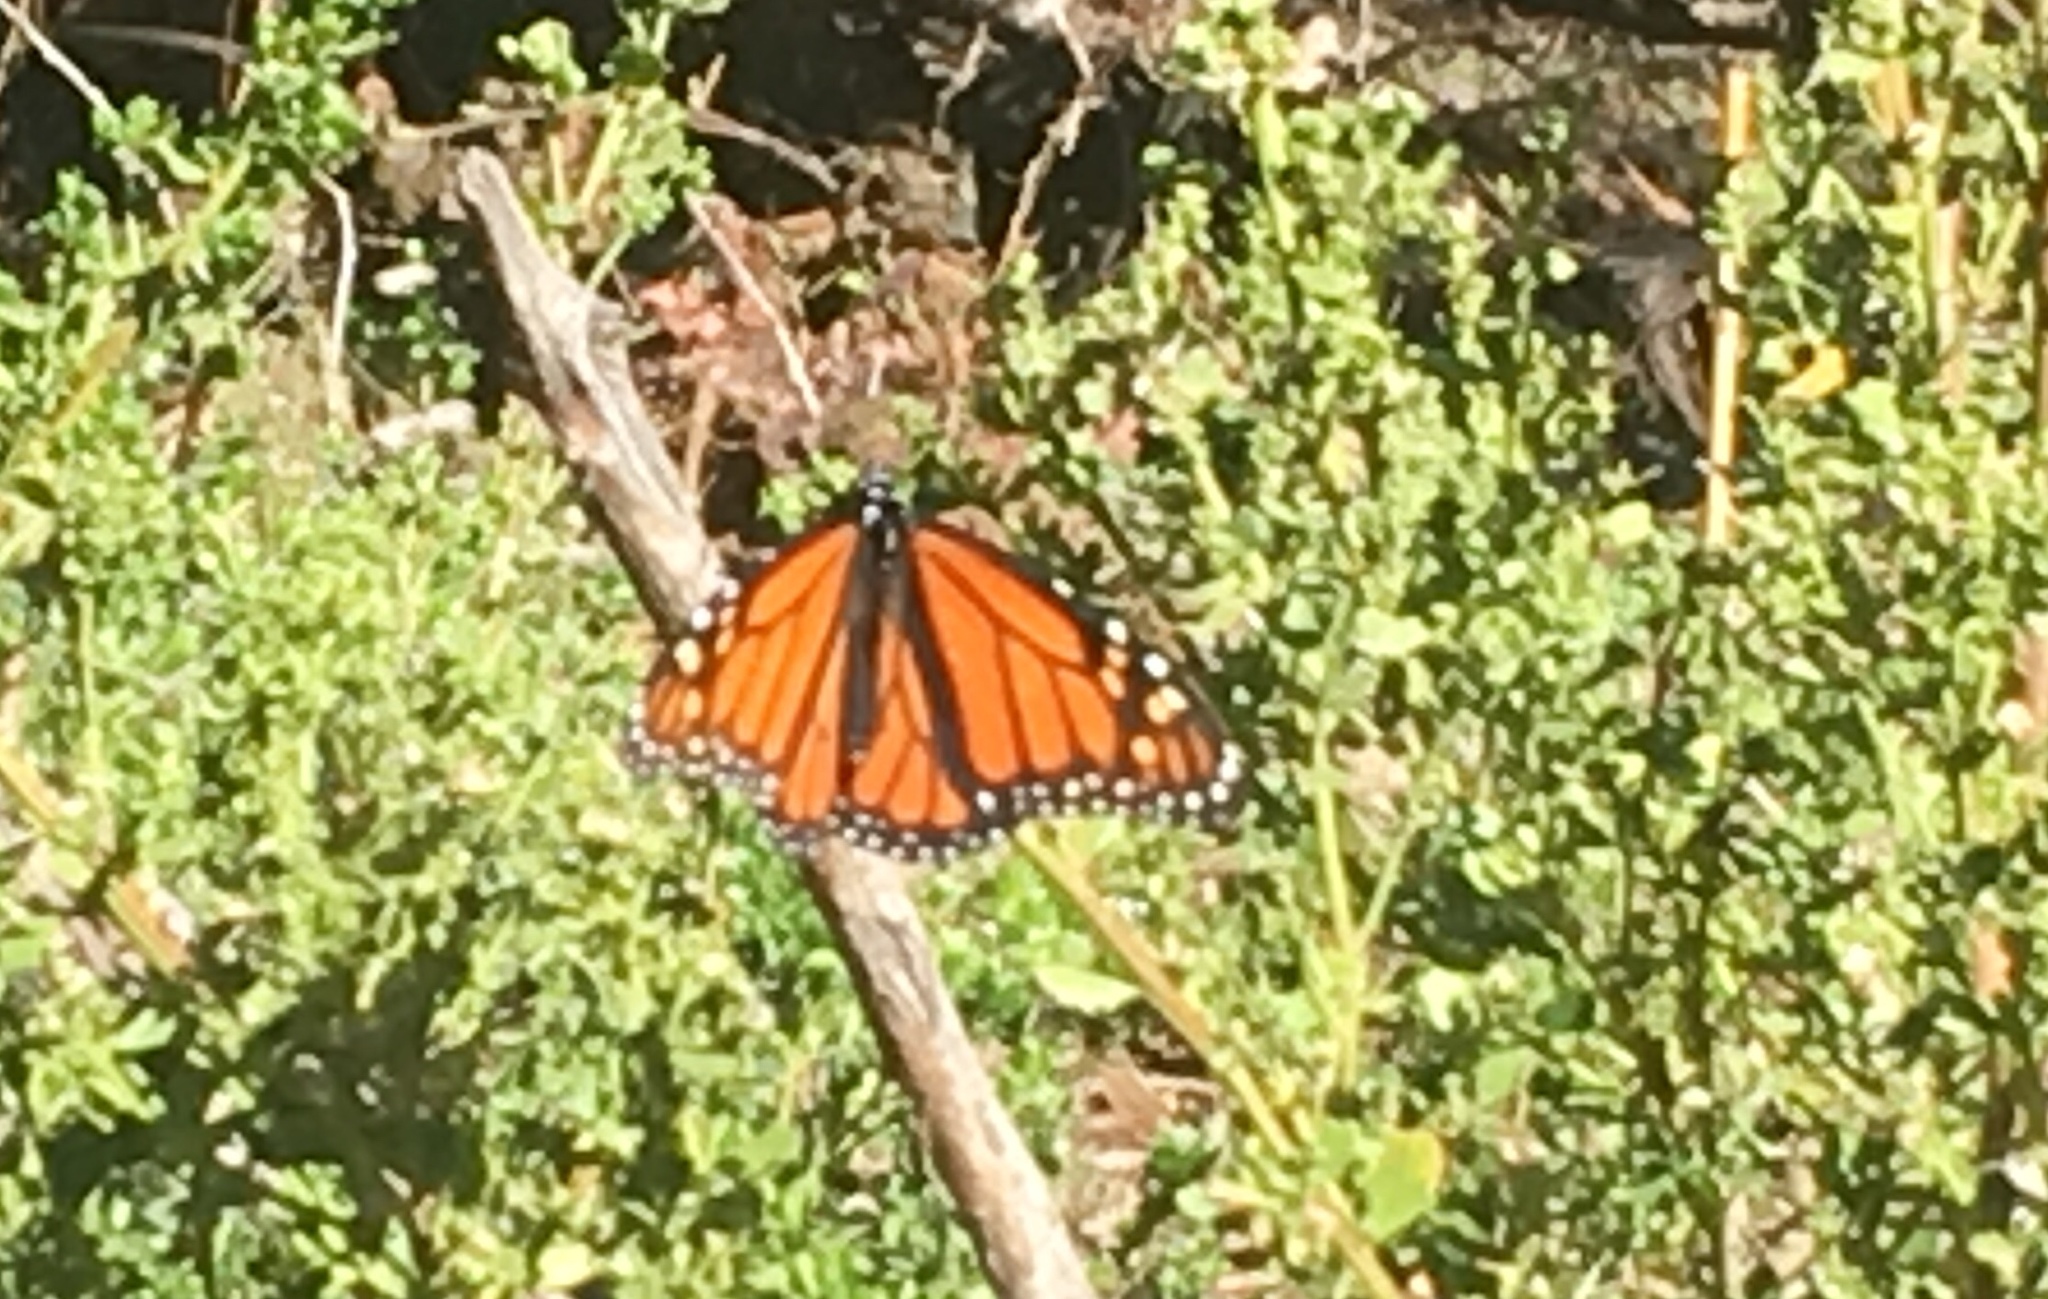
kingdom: Animalia
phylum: Arthropoda
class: Insecta
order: Lepidoptera
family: Nymphalidae
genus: Danaus
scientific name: Danaus plexippus
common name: Monarch
